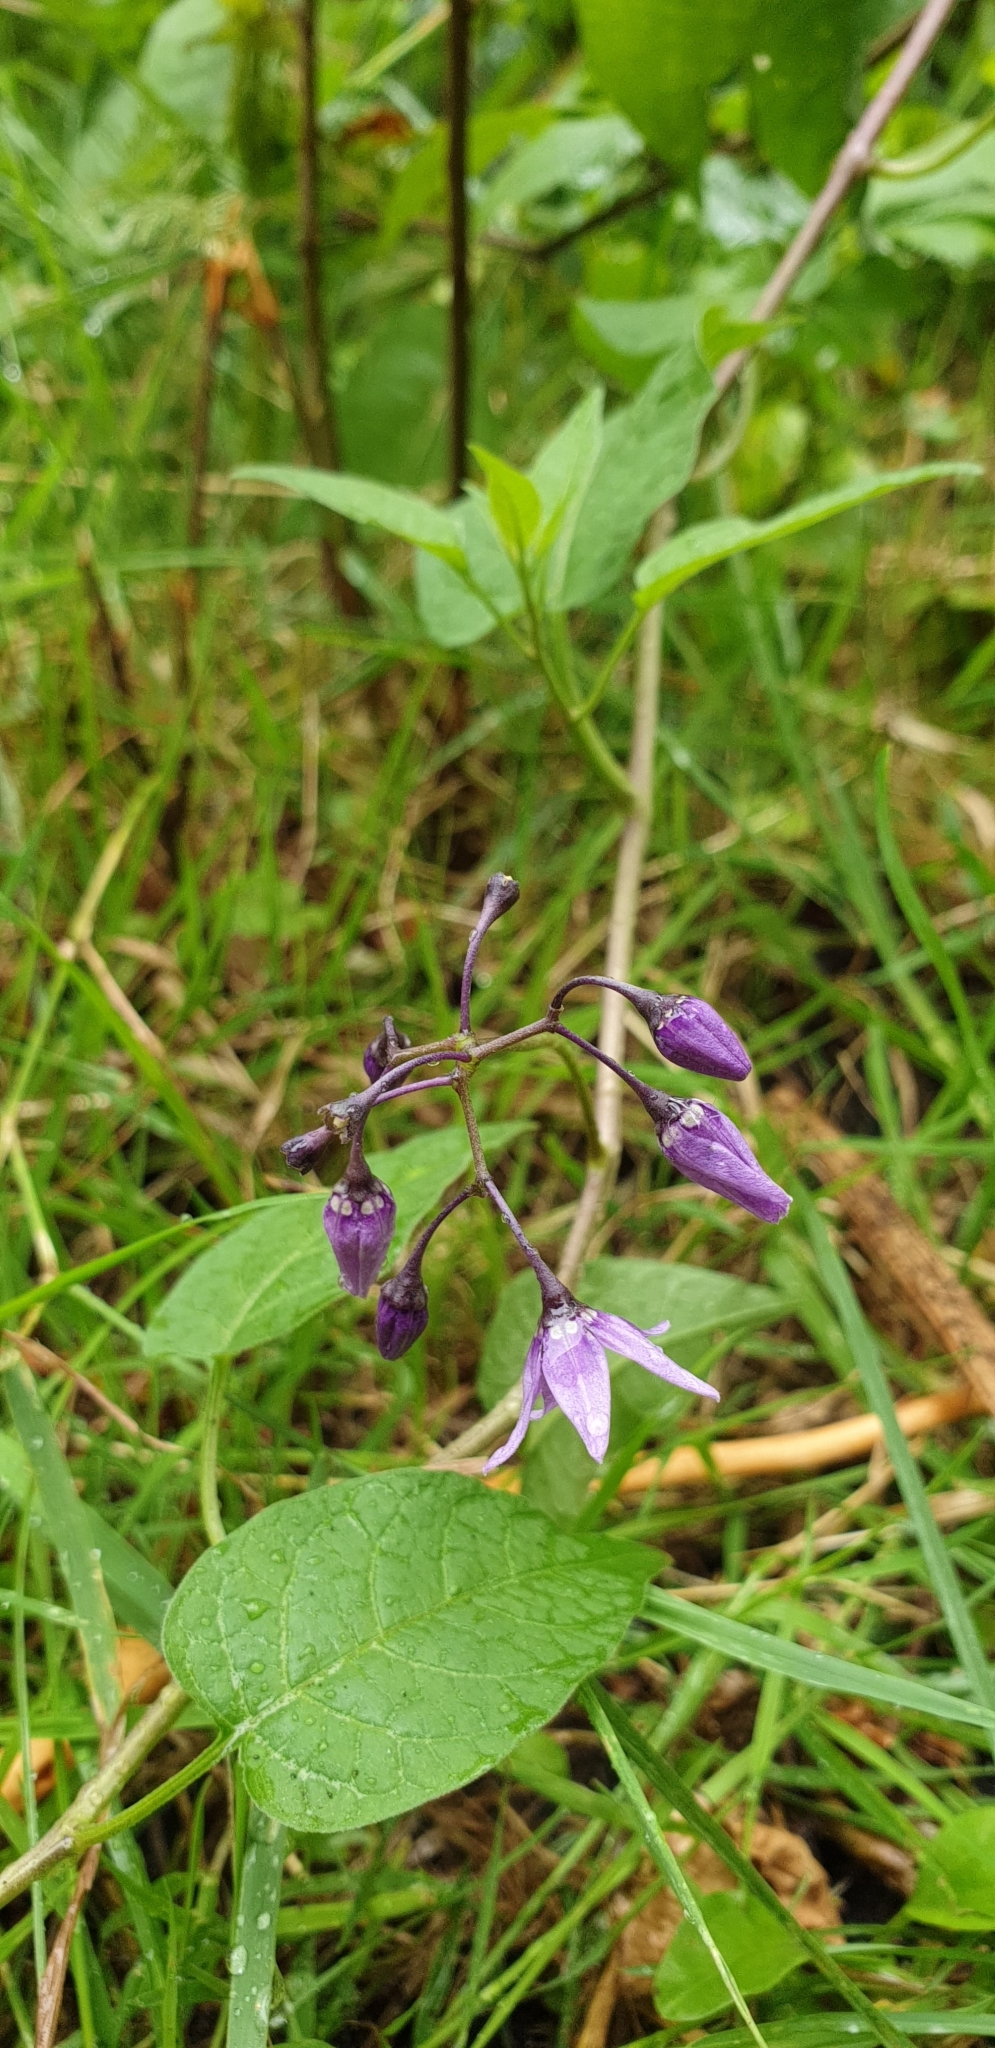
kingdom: Plantae
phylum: Tracheophyta
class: Magnoliopsida
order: Solanales
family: Solanaceae
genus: Solanum
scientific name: Solanum dulcamara
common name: Climbing nightshade
